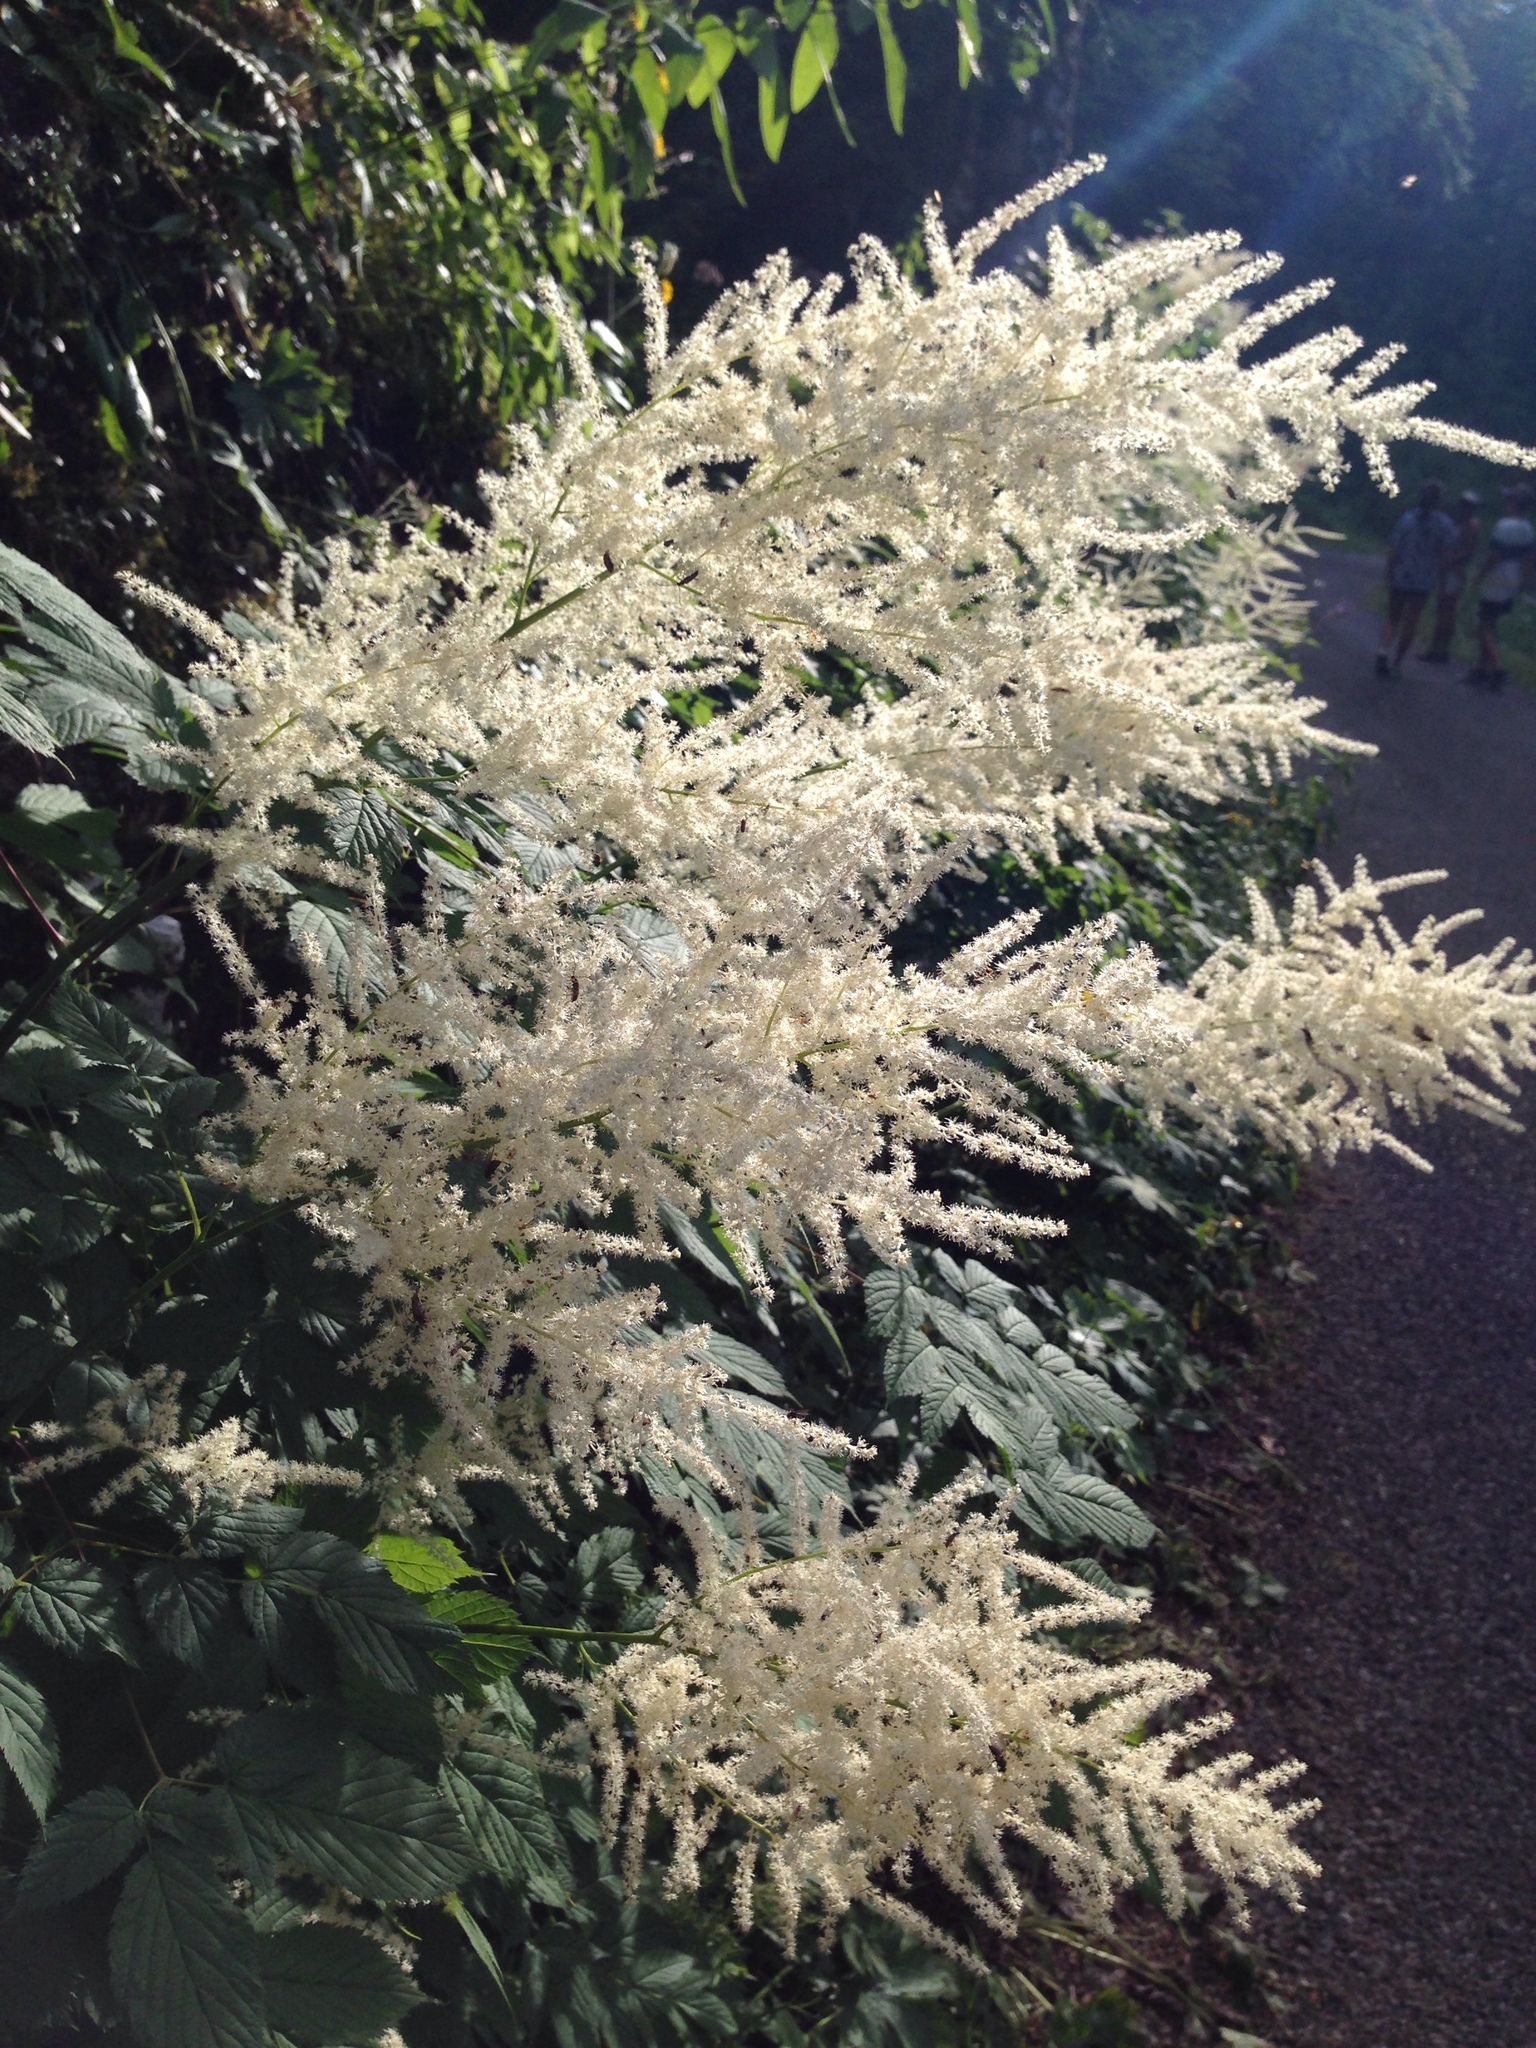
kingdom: Plantae
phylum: Tracheophyta
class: Magnoliopsida
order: Rosales
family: Rosaceae
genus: Aruncus
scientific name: Aruncus dioicus
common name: Buck's-beard
